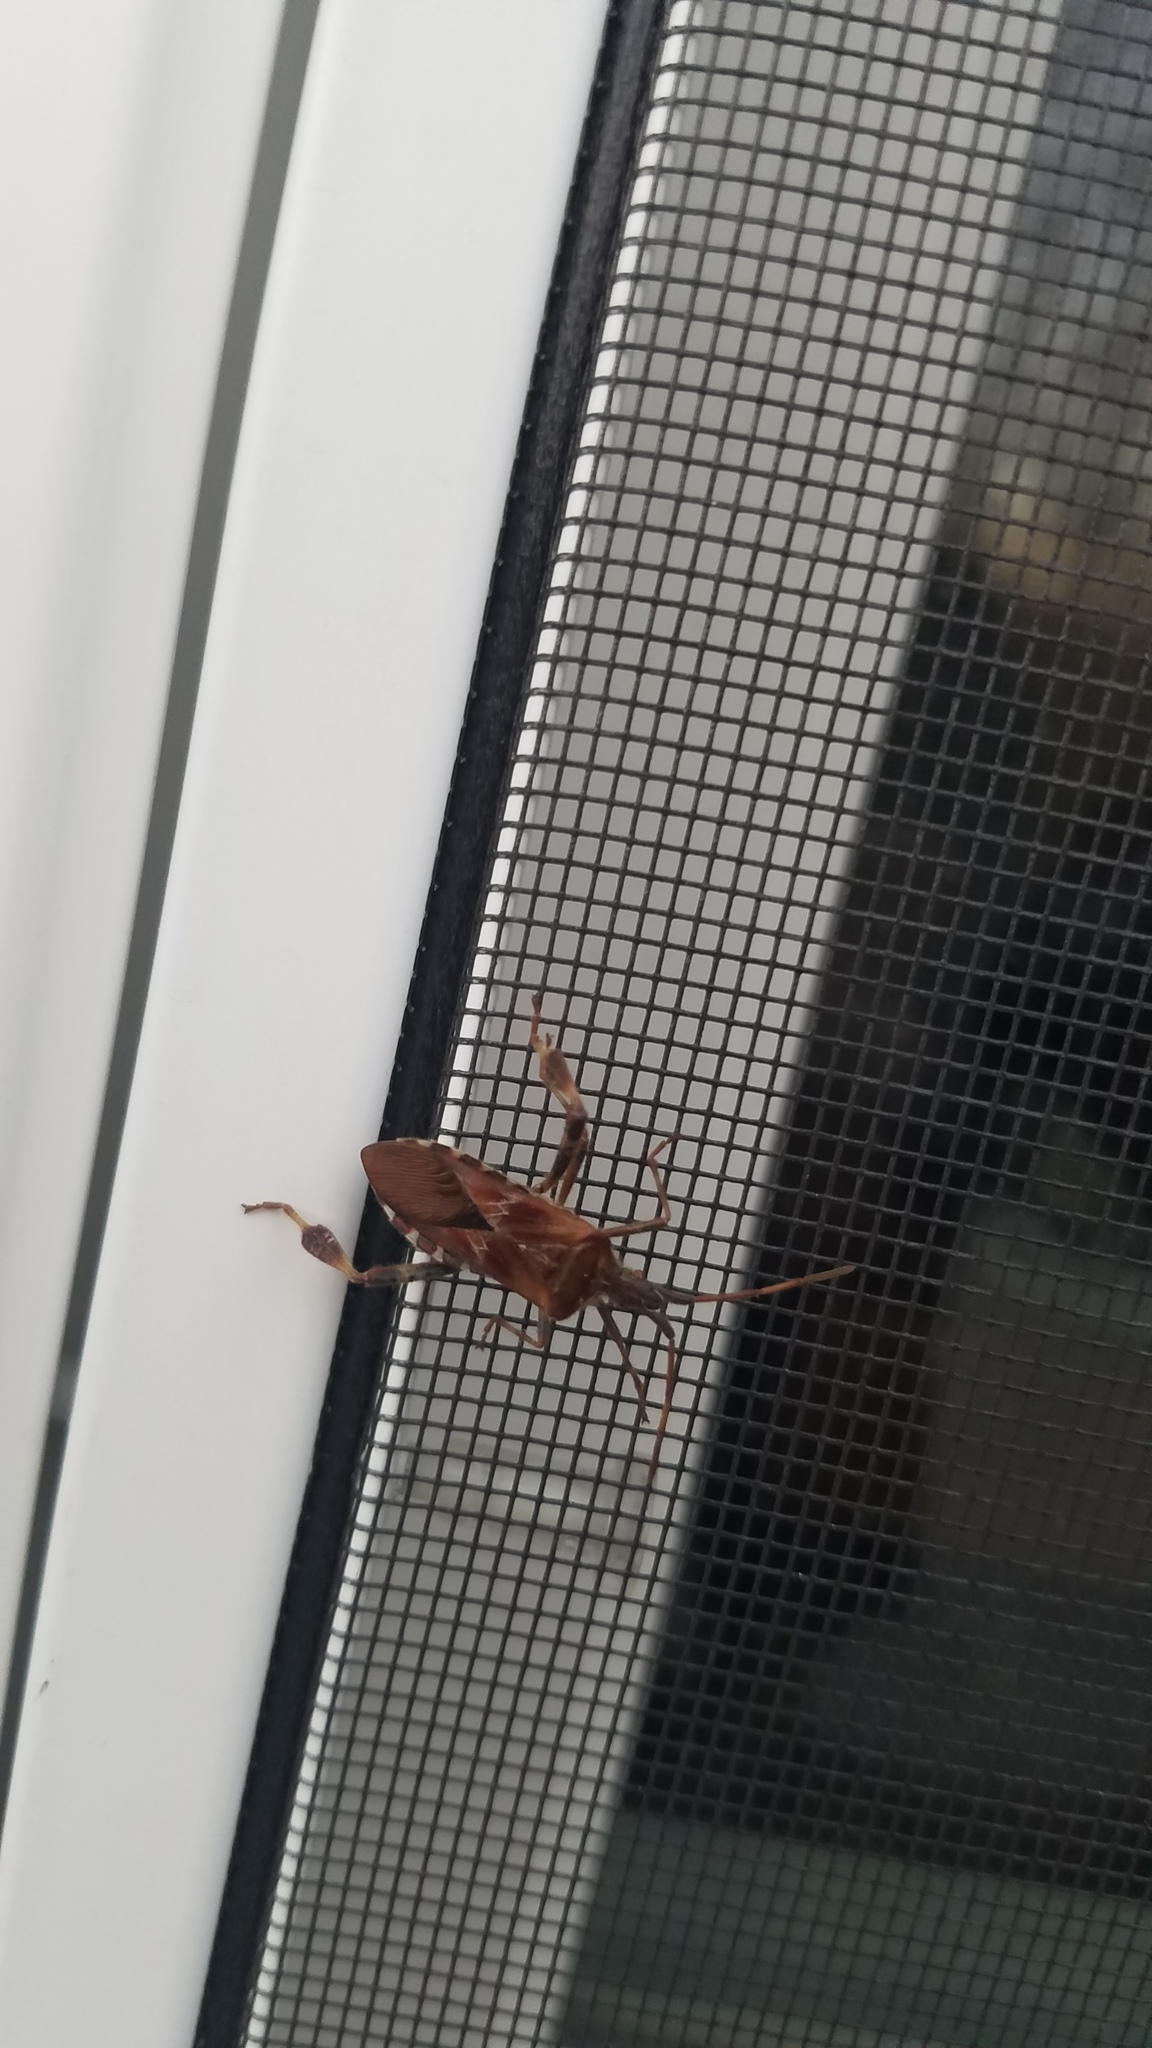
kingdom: Animalia
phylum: Arthropoda
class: Insecta
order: Hemiptera
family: Coreidae
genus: Leptoglossus
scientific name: Leptoglossus occidentalis
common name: Western conifer-seed bug
